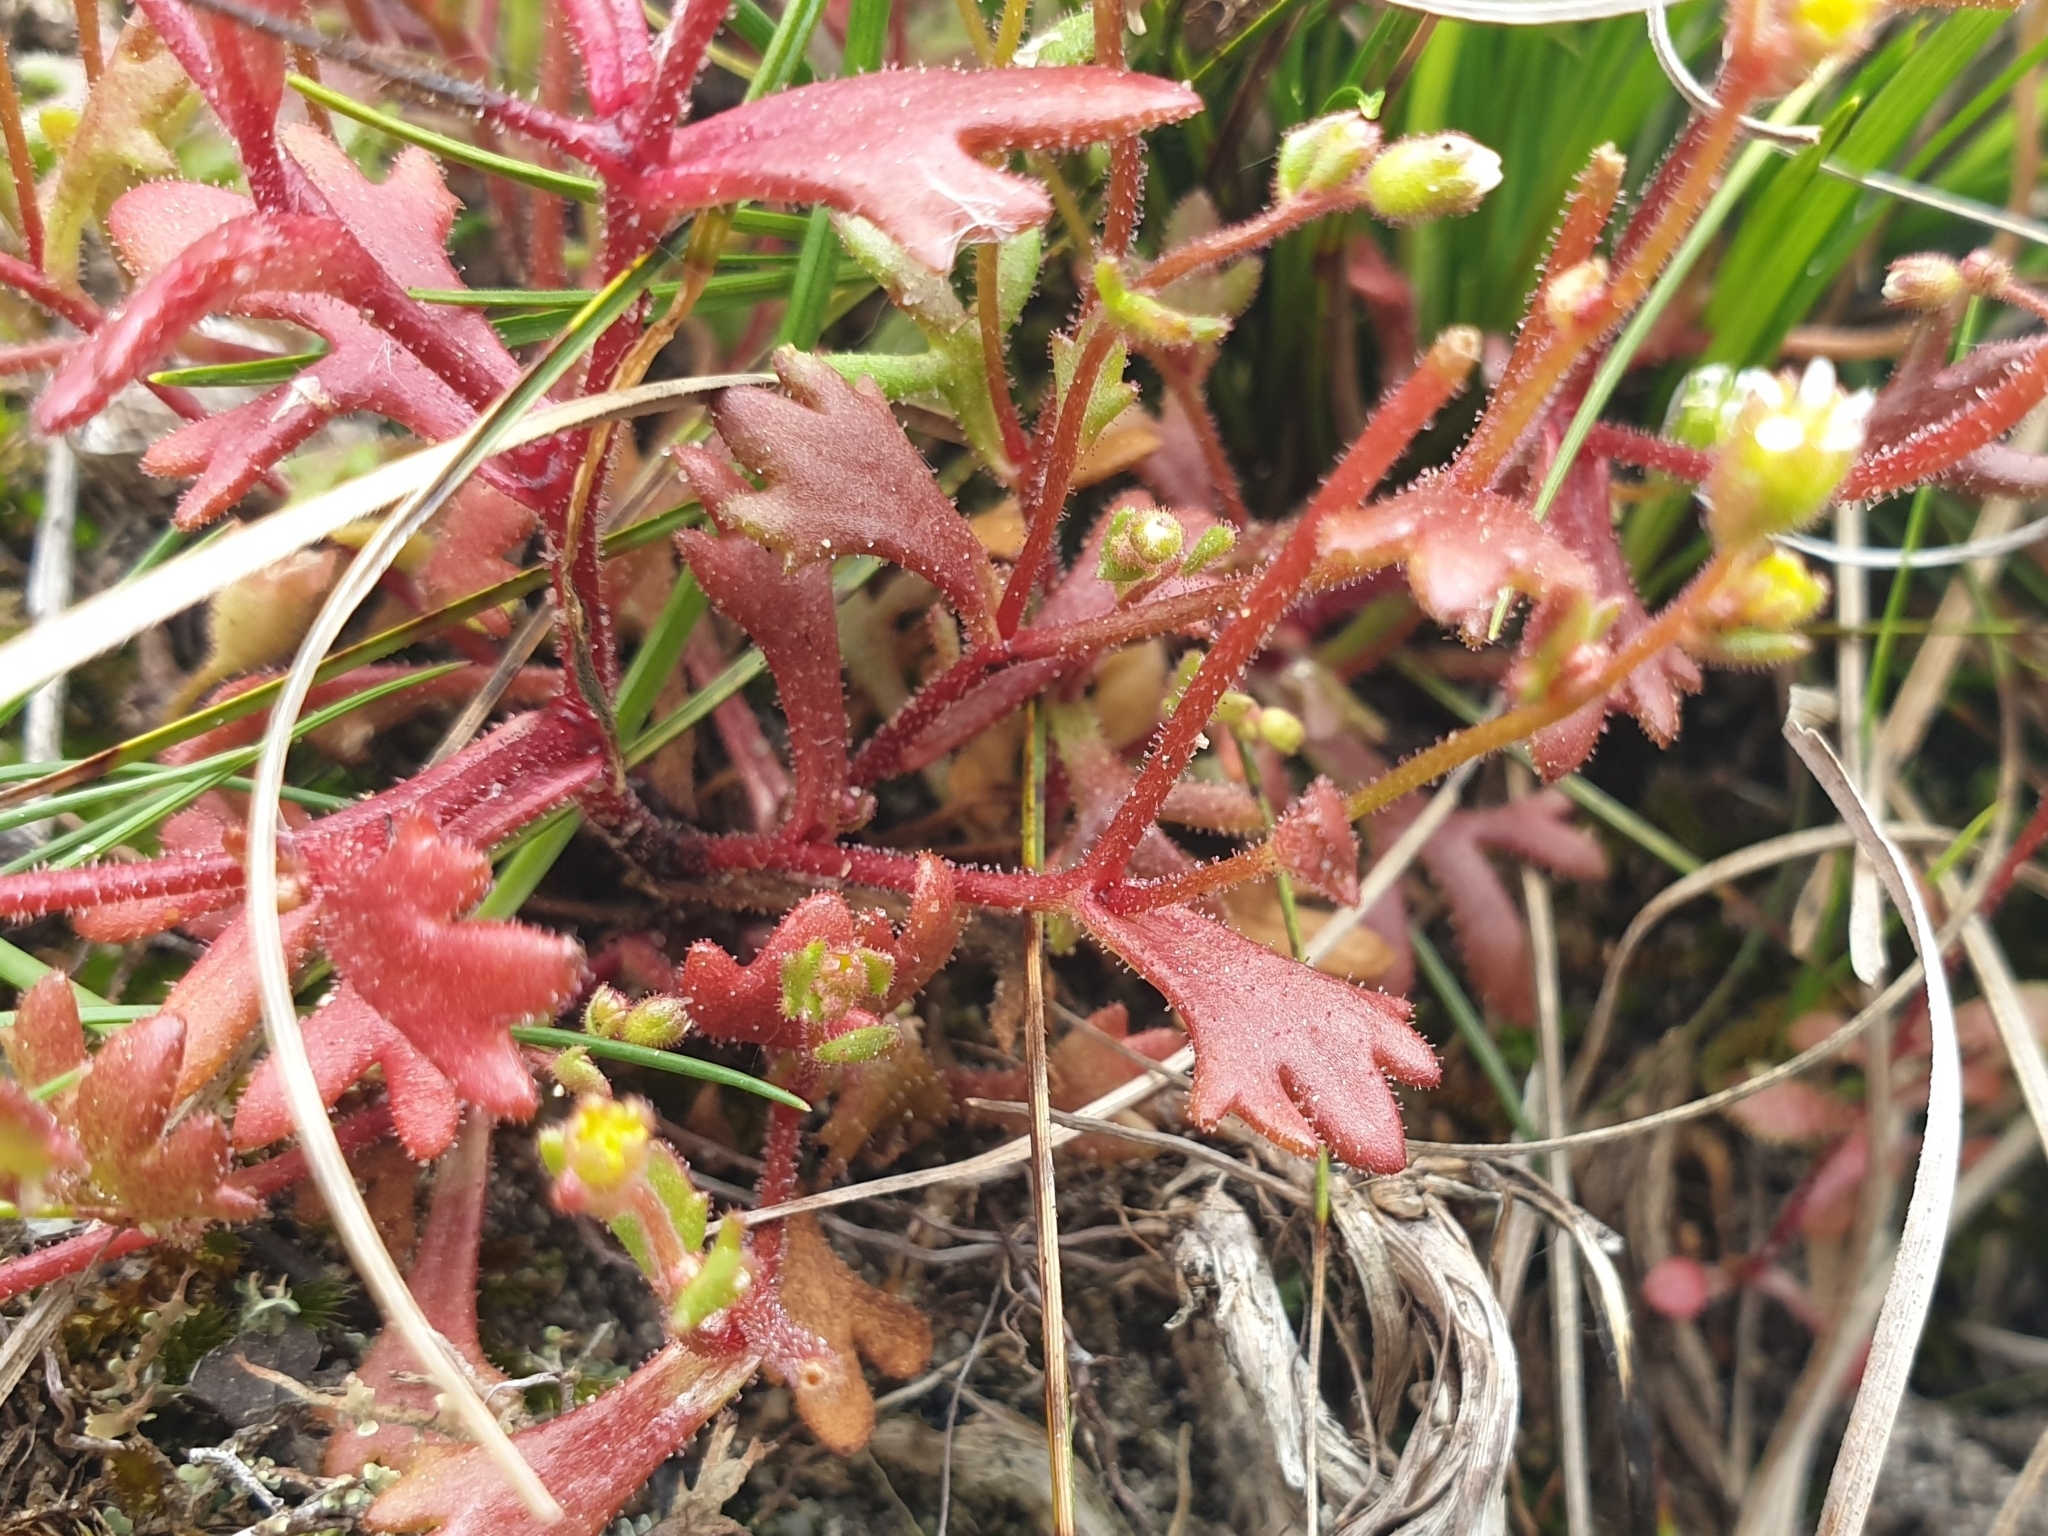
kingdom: Plantae
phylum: Tracheophyta
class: Magnoliopsida
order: Saxifragales
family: Saxifragaceae
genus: Saxifraga
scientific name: Saxifraga tridactylites
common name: Rue-leaved saxifrage
